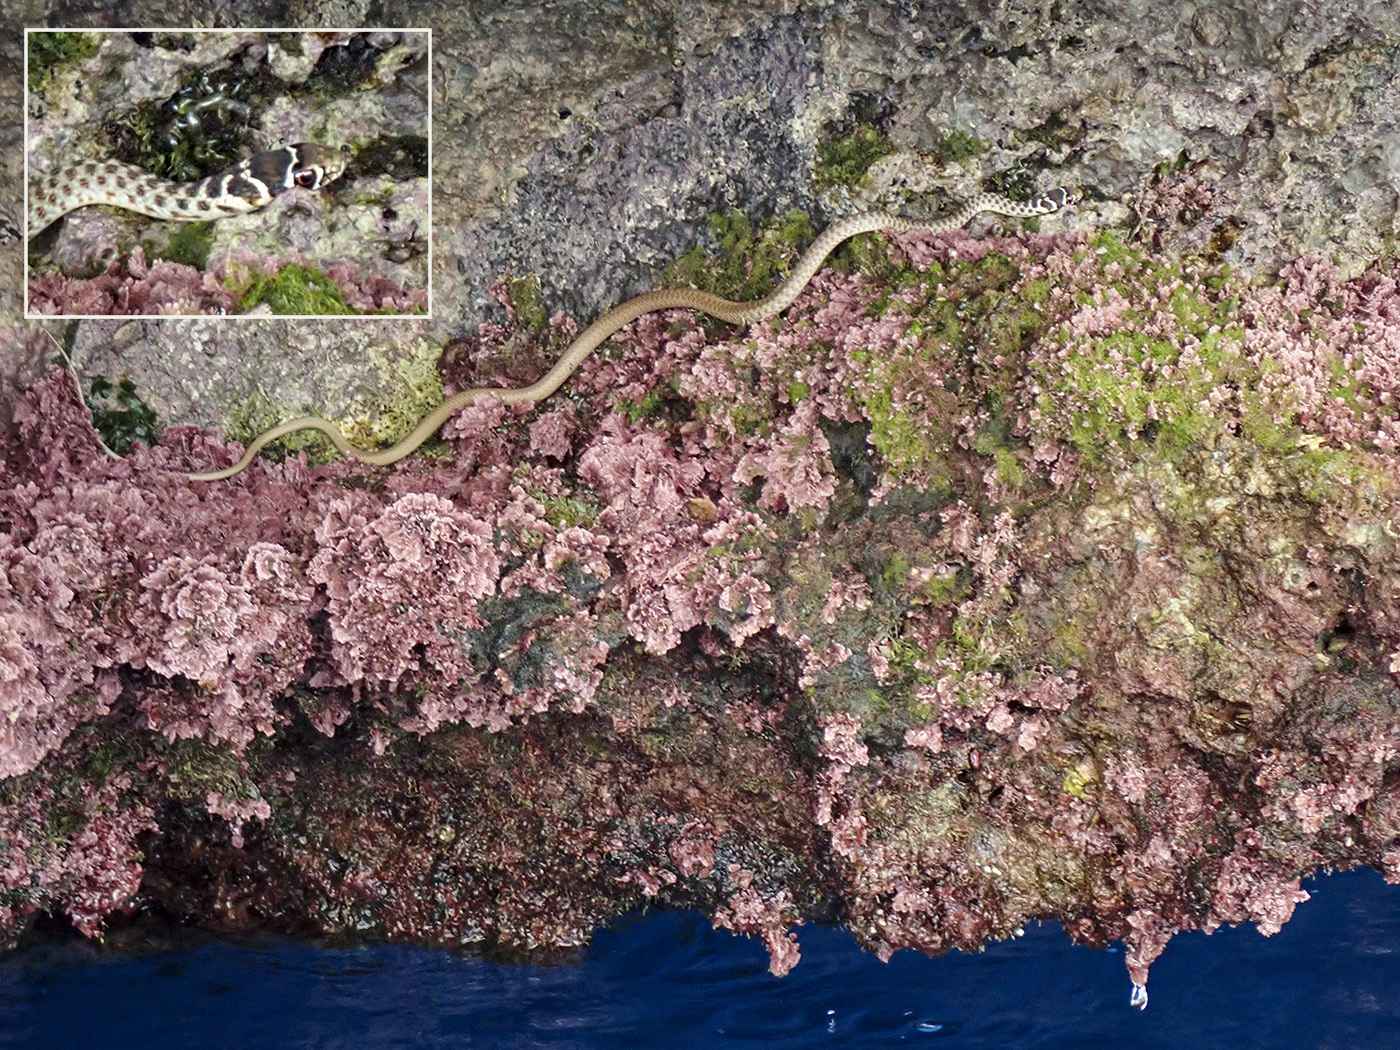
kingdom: Animalia
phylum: Chordata
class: Squamata
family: Colubridae
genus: Hierophis
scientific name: Hierophis viridiflavus
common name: Green whip snake
